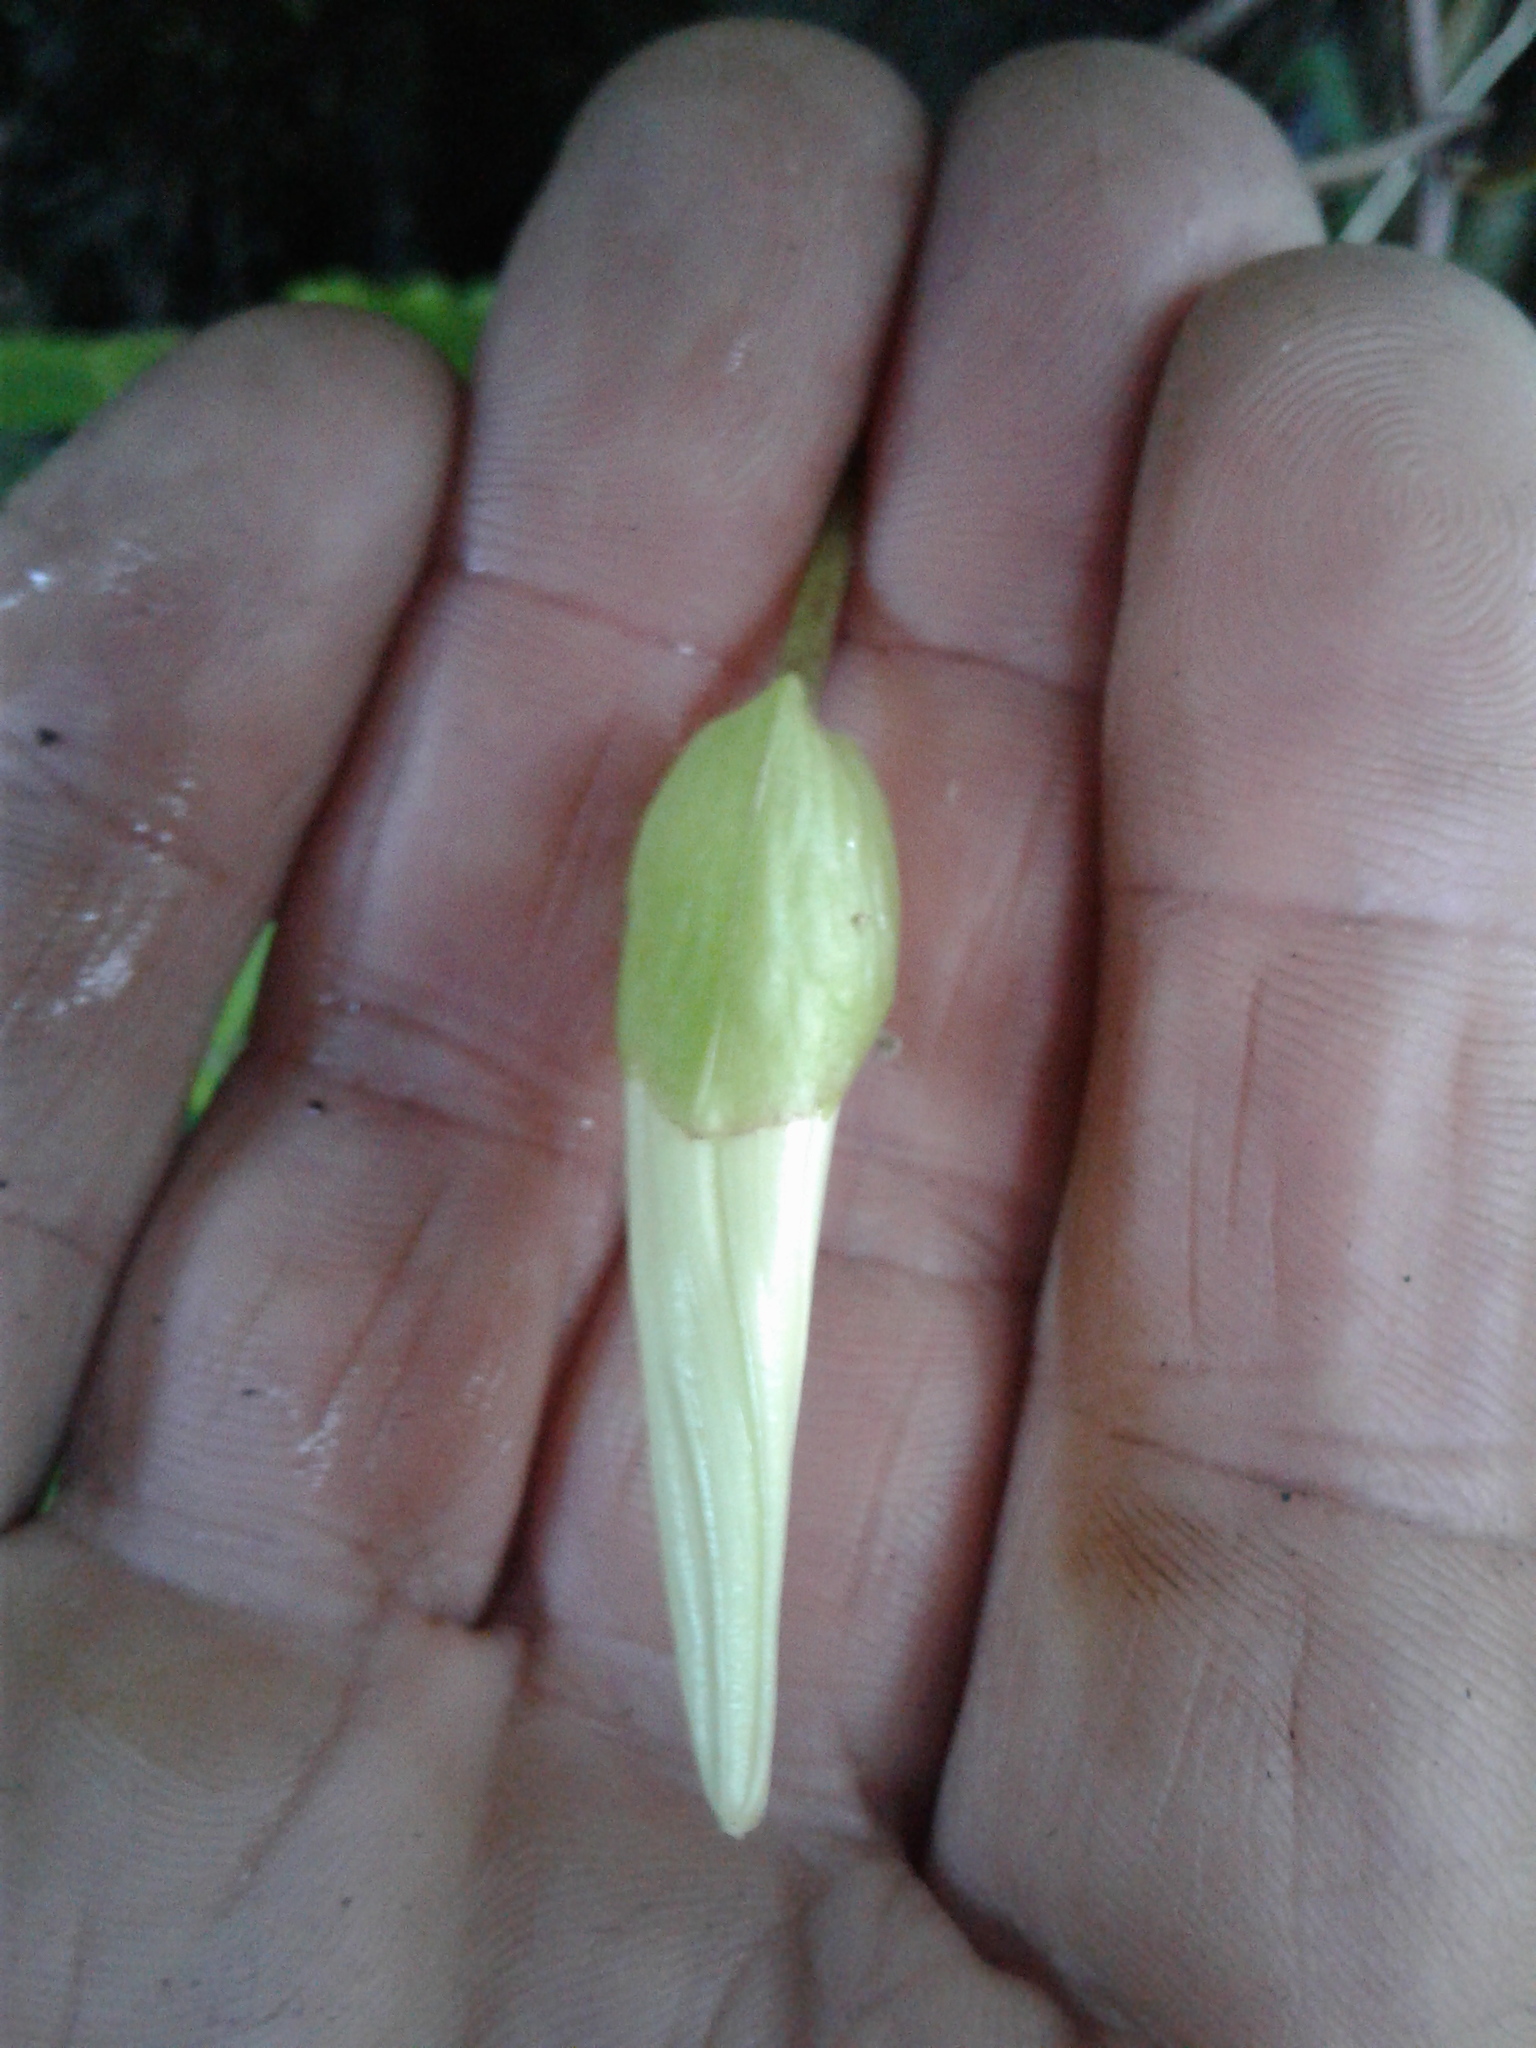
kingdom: Plantae
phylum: Tracheophyta
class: Magnoliopsida
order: Solanales
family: Convolvulaceae
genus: Calystegia
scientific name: Calystegia silvatica
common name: Large bindweed
